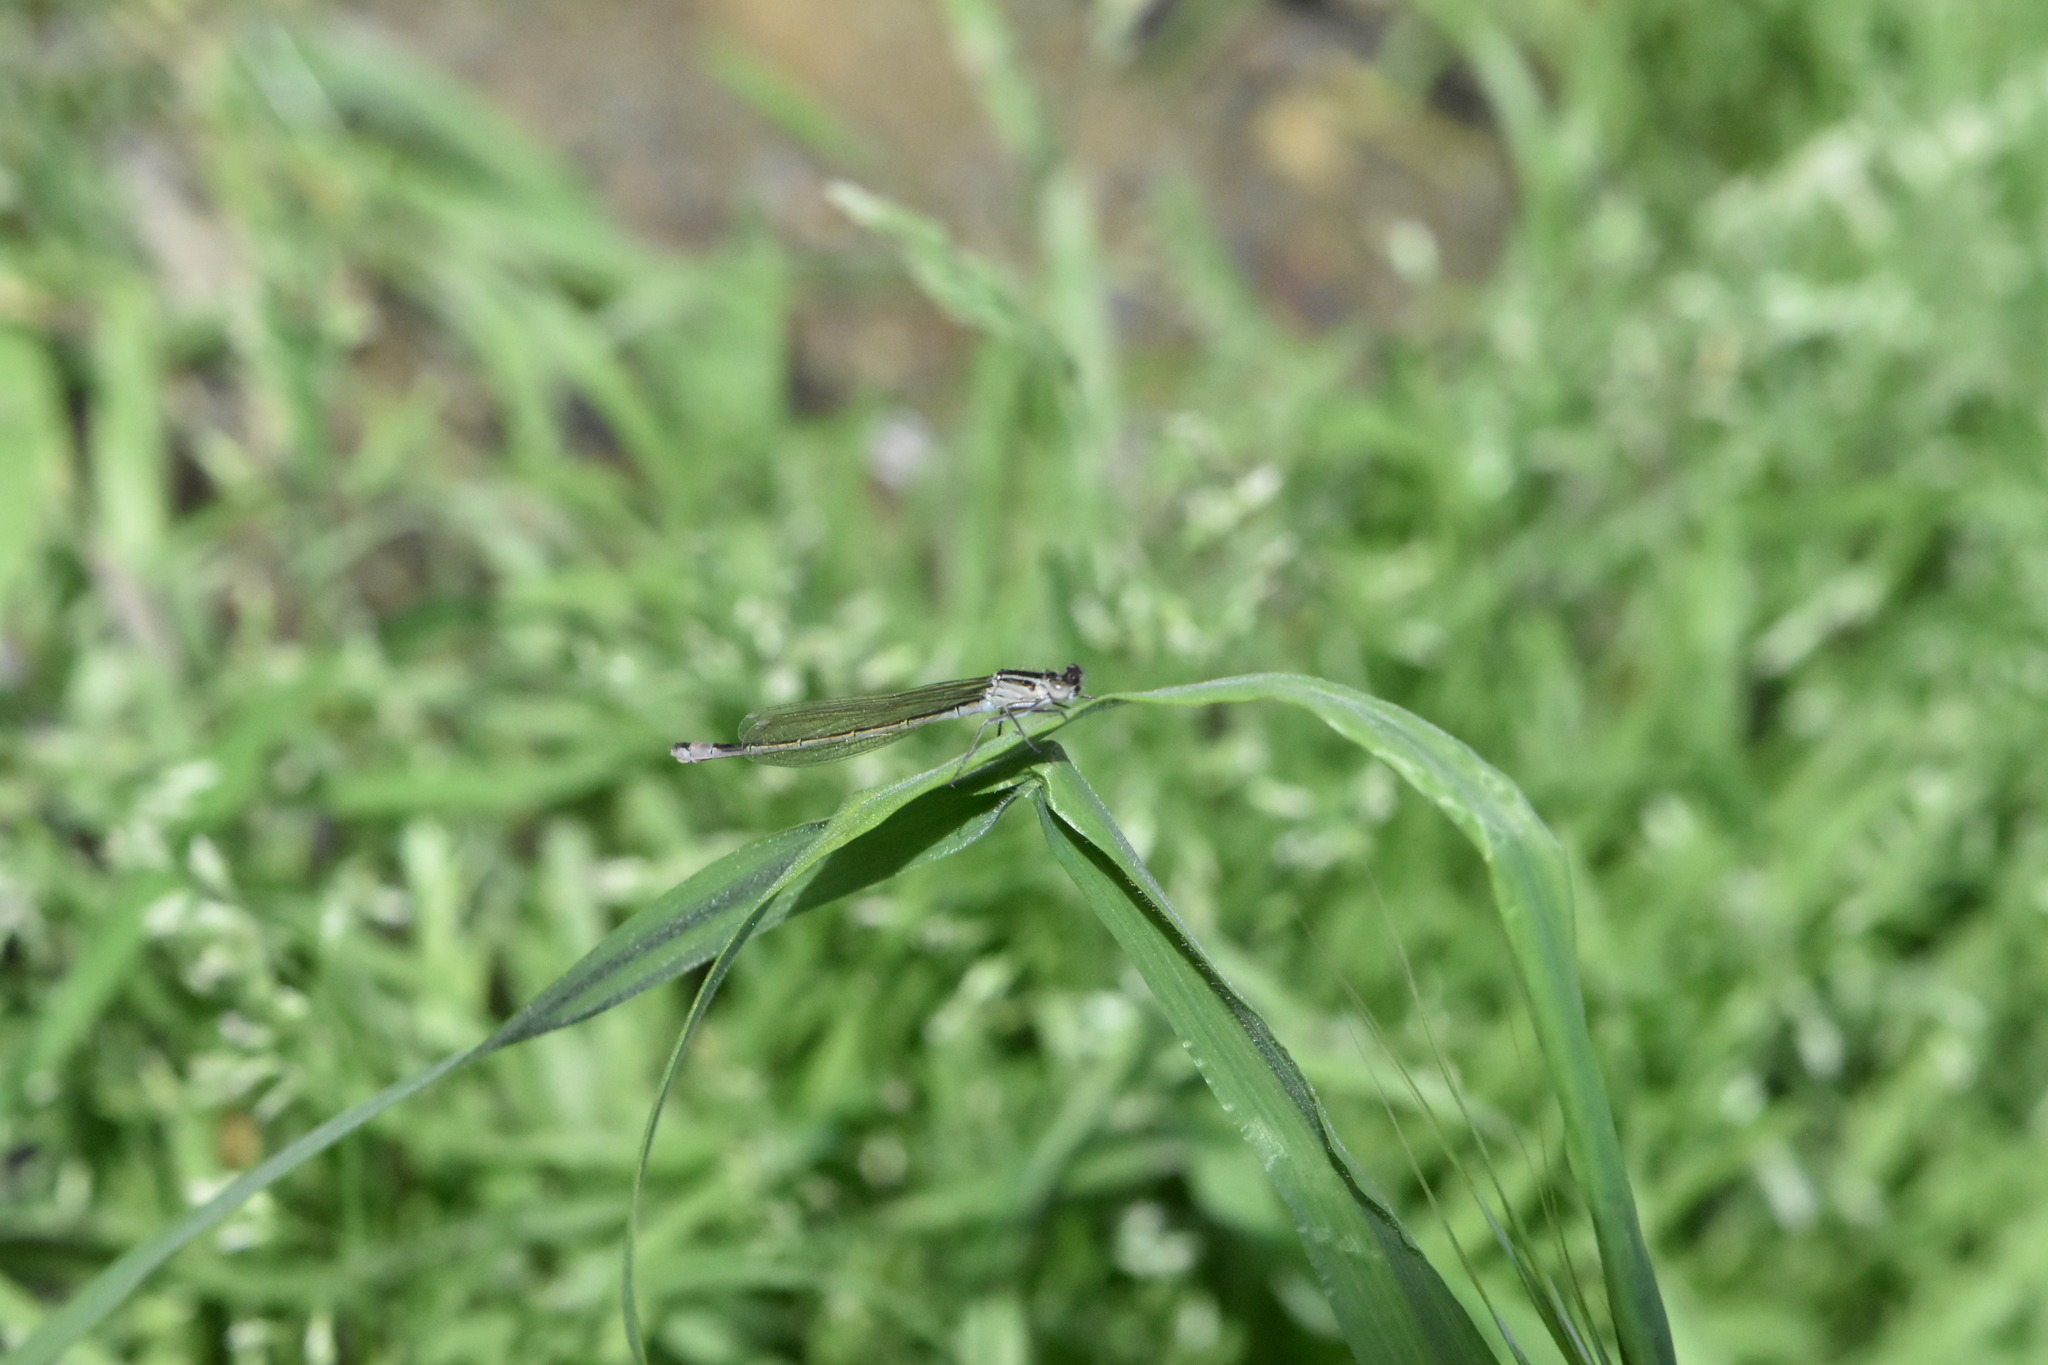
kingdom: Animalia
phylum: Arthropoda
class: Insecta
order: Odonata
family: Coenagrionidae
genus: Ischnura
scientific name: Ischnura elegans
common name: Blue-tailed damselfly
